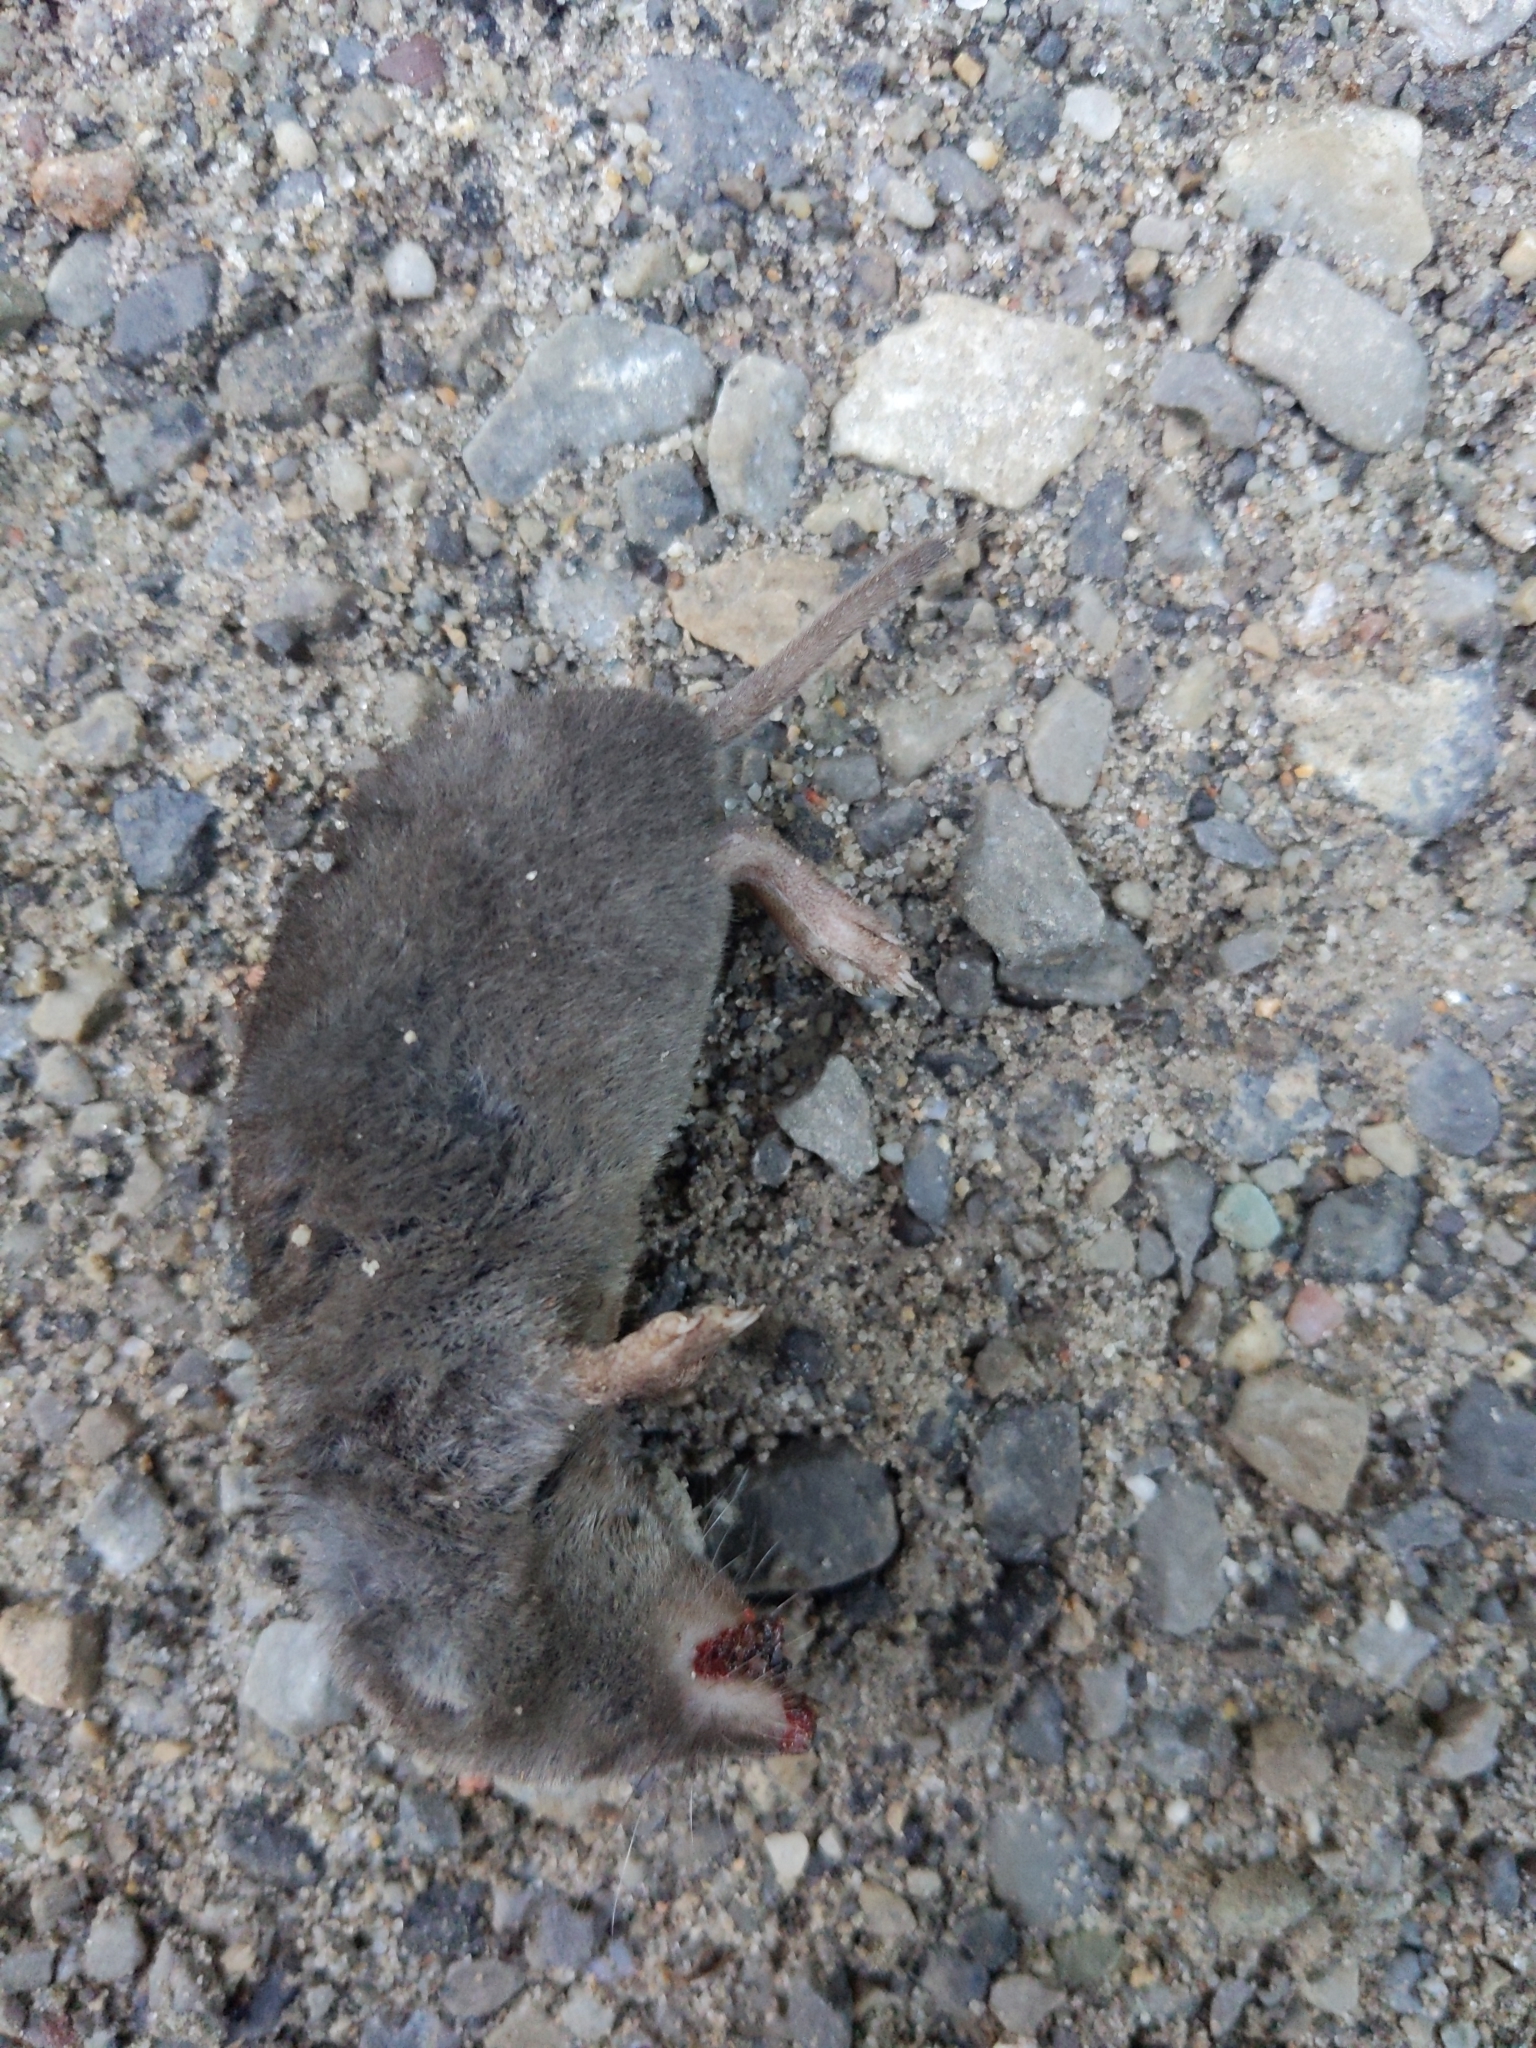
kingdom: Animalia
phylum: Chordata
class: Mammalia
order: Soricomorpha
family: Soricidae
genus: Blarina
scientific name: Blarina brevicauda
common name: Northern short-tailed shrew
